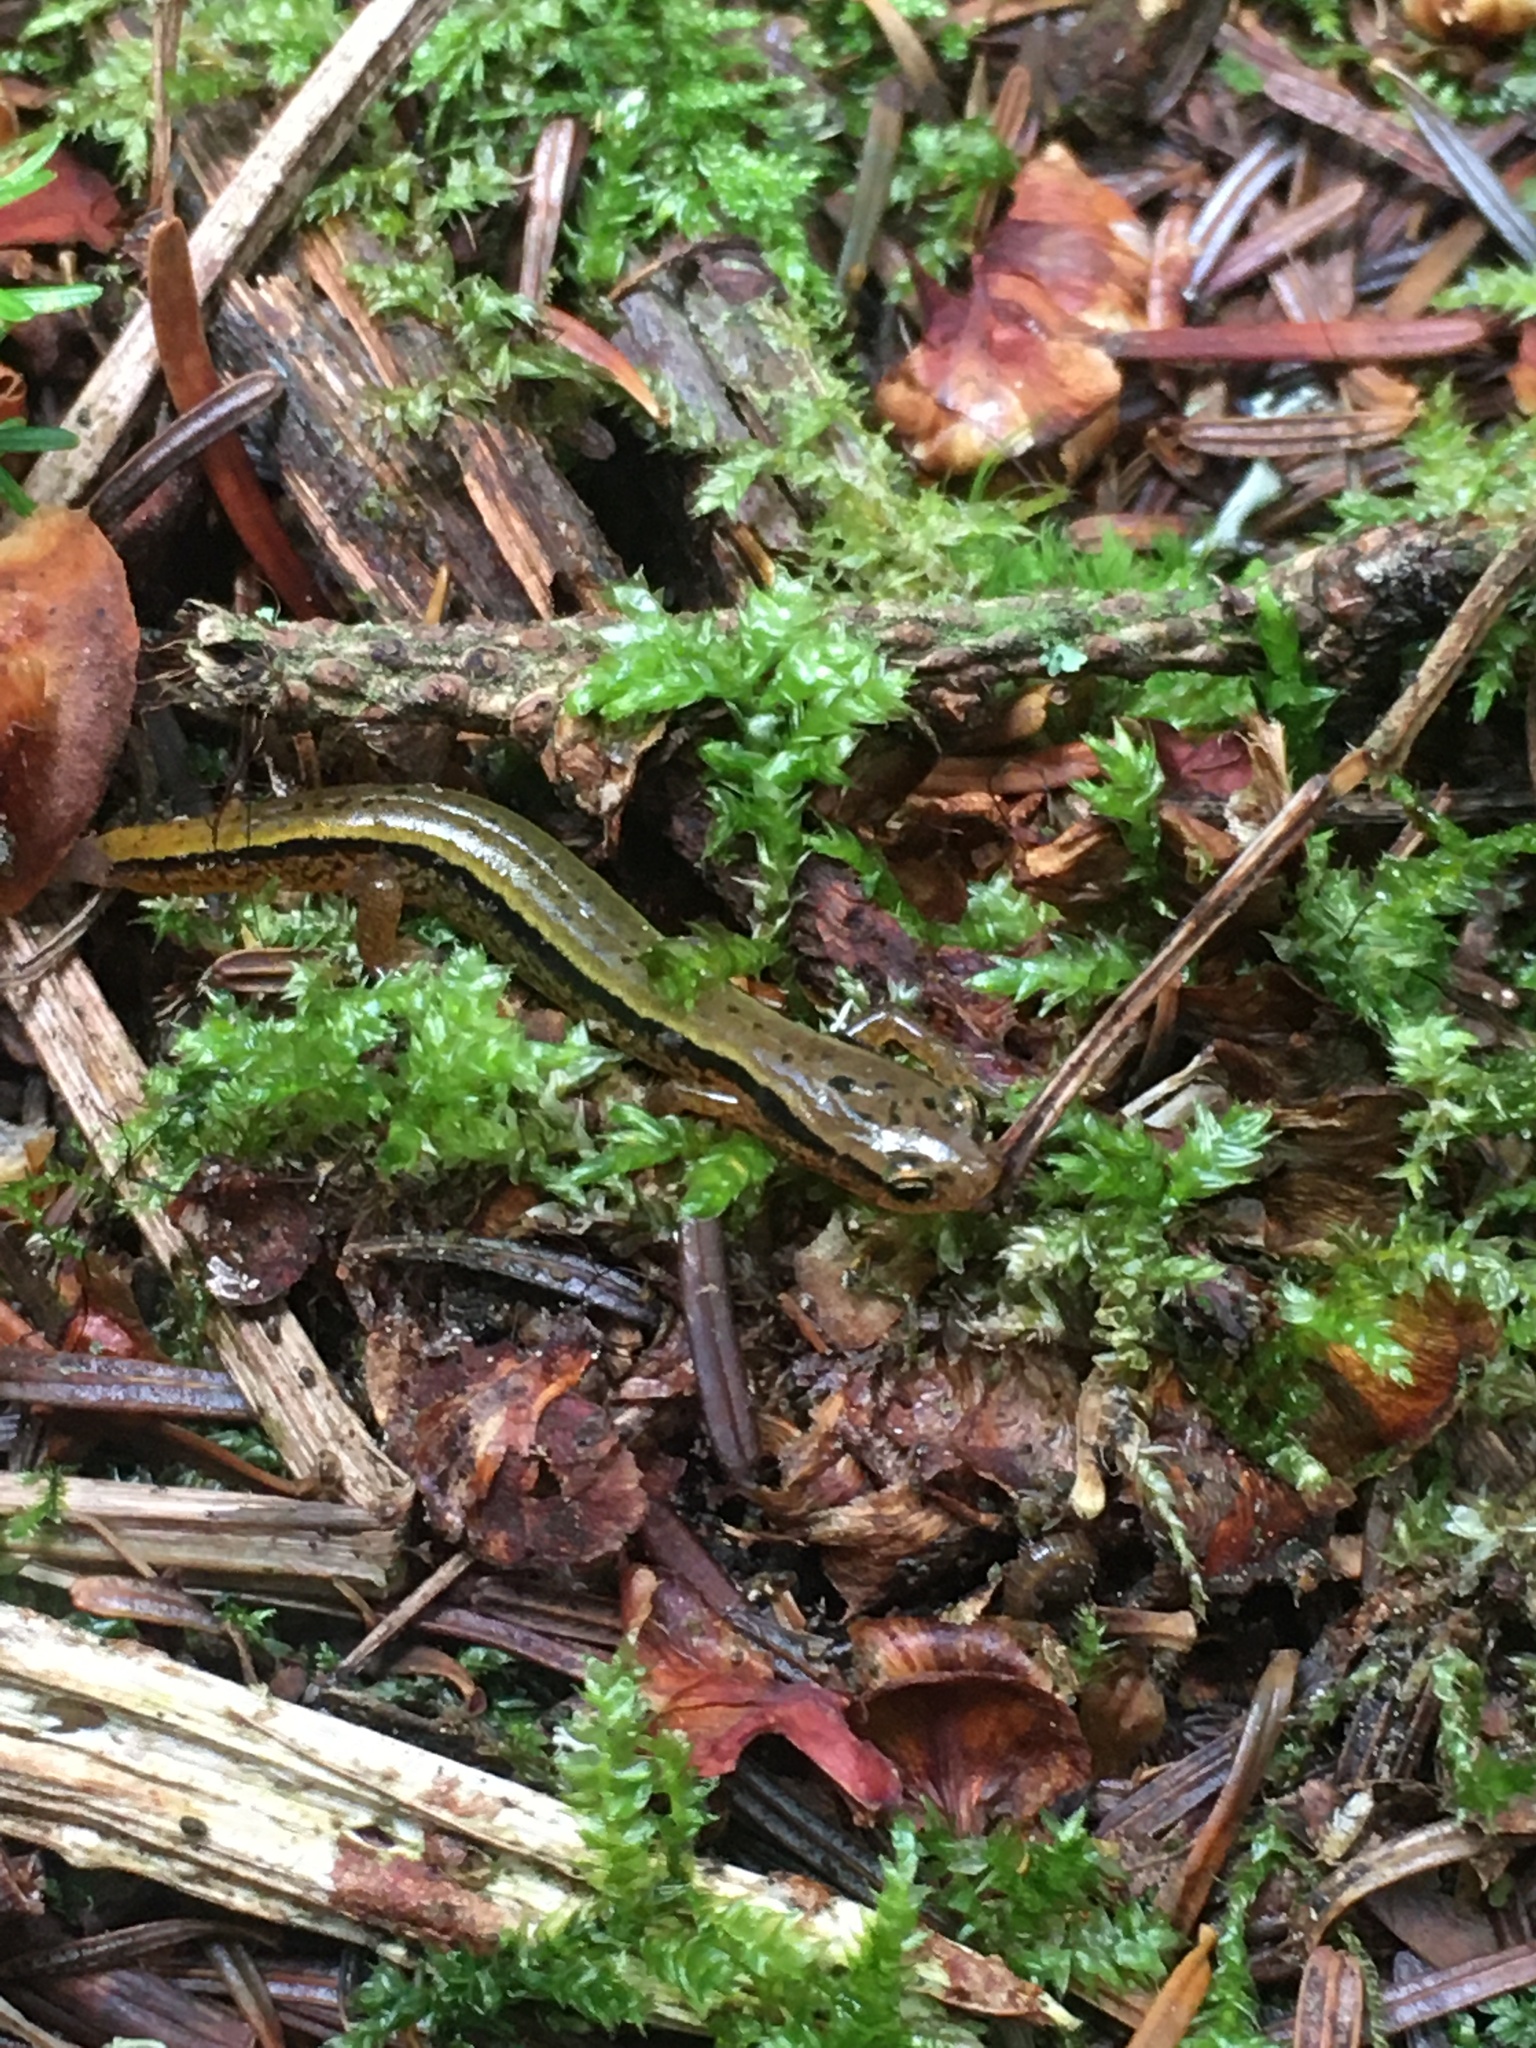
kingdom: Animalia
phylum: Chordata
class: Amphibia
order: Caudata
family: Plethodontidae
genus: Eurycea
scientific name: Eurycea wilderae
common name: Blue ridge two-lined salamander
